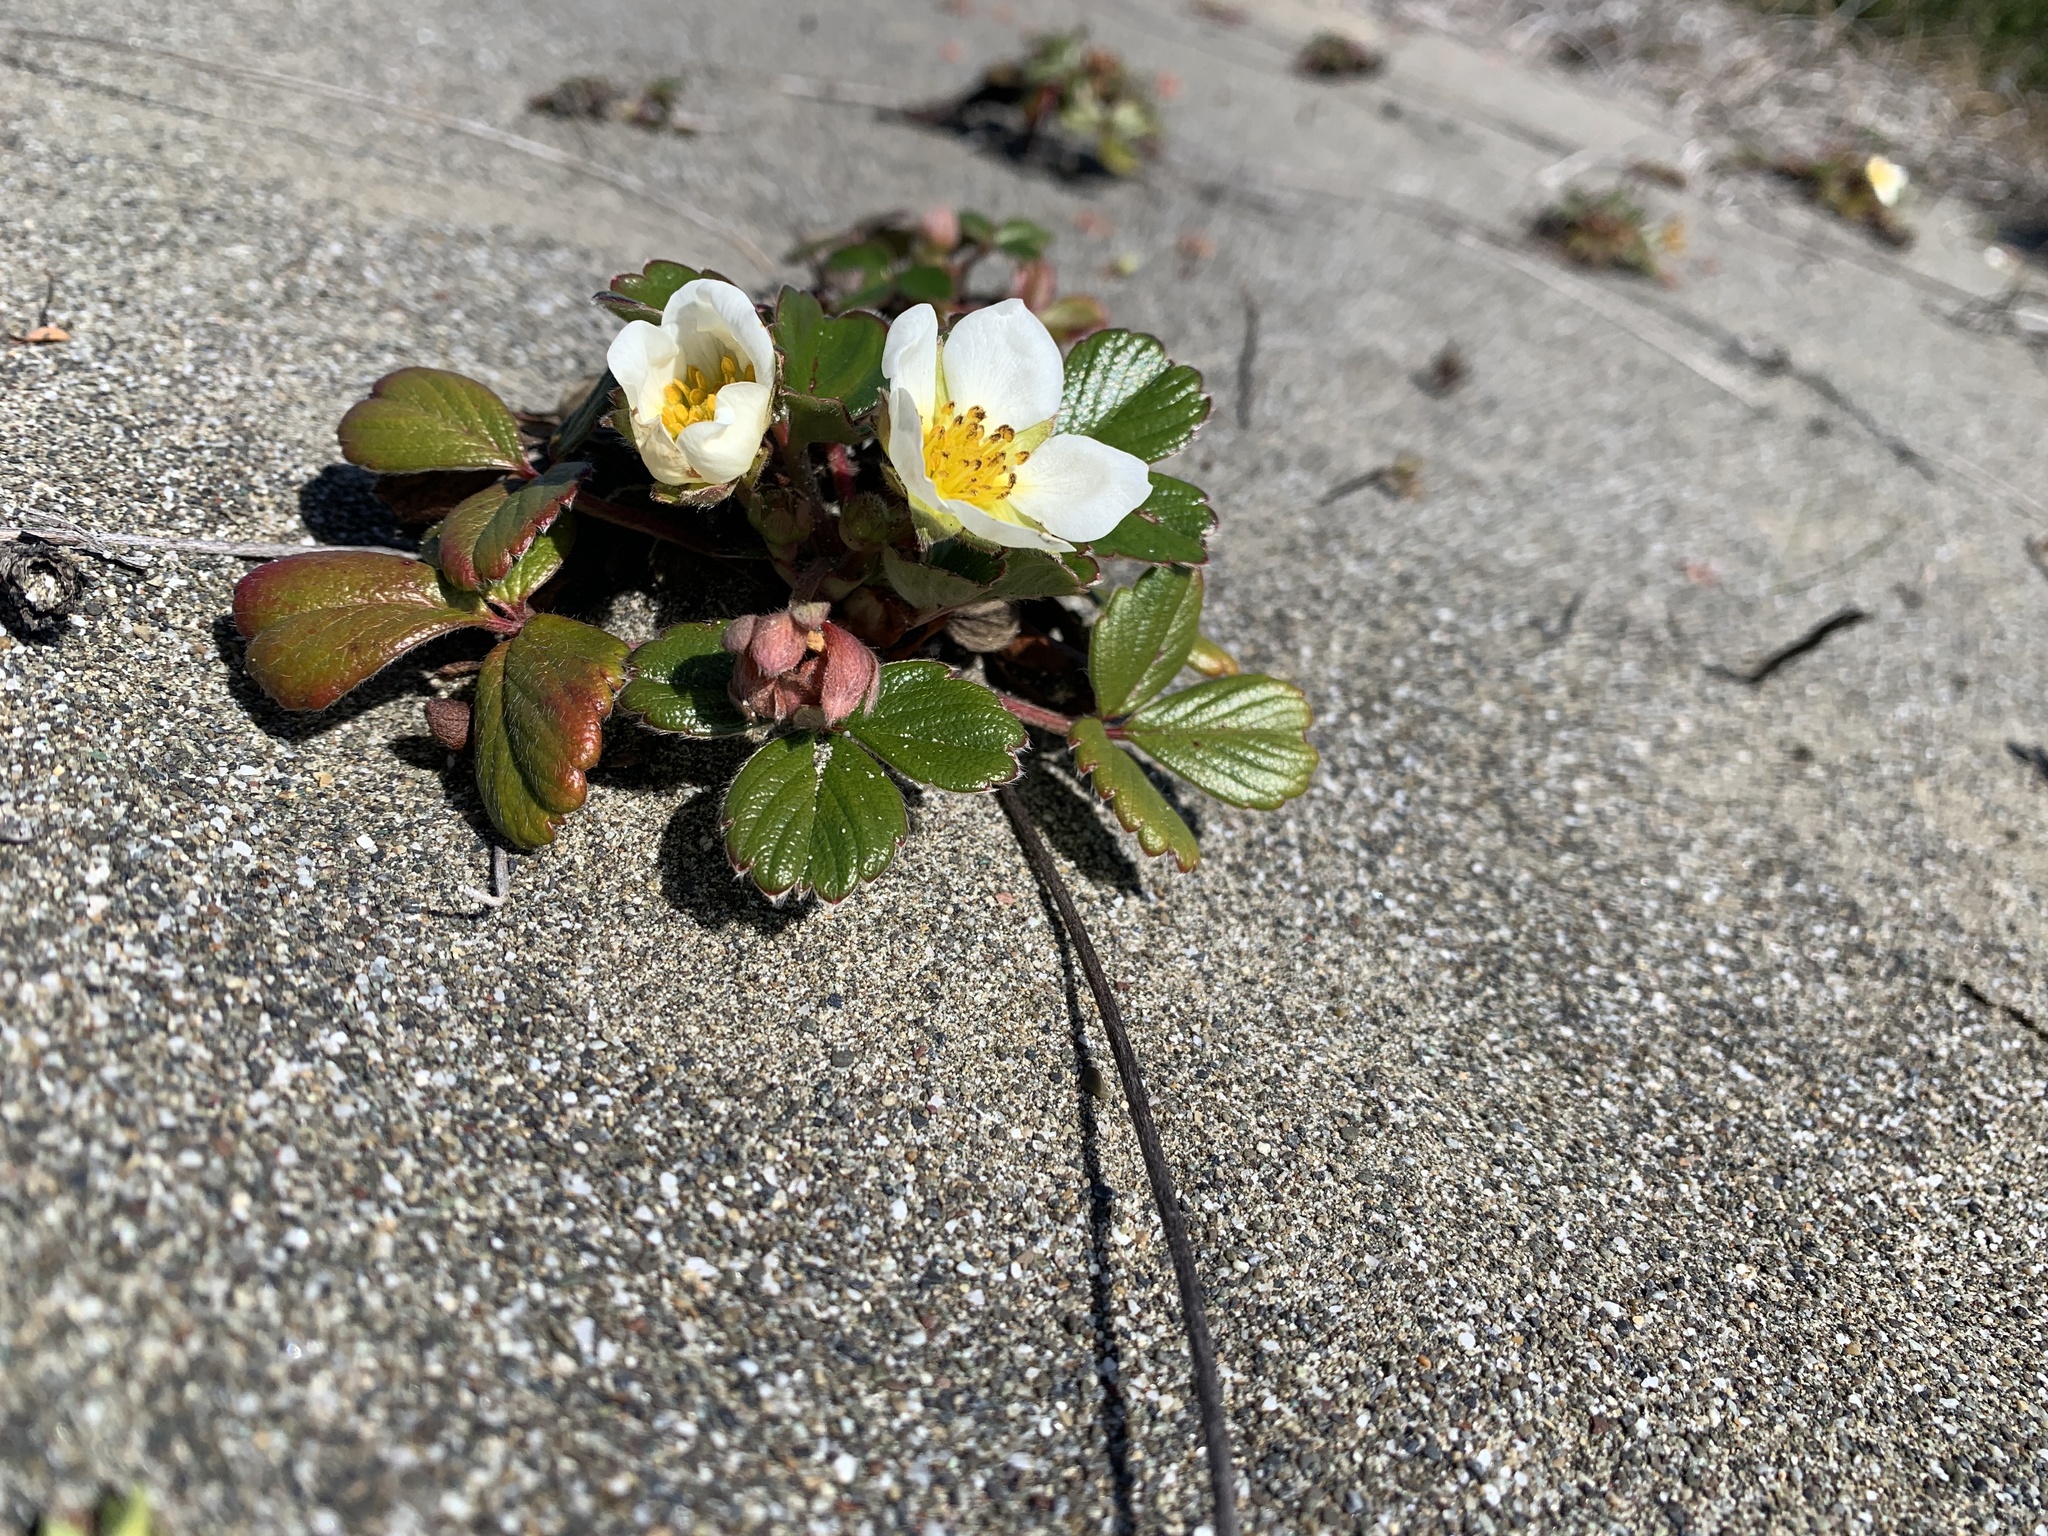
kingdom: Plantae
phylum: Tracheophyta
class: Magnoliopsida
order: Rosales
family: Rosaceae
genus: Fragaria
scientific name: Fragaria chiloensis
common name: Beach strawberry
